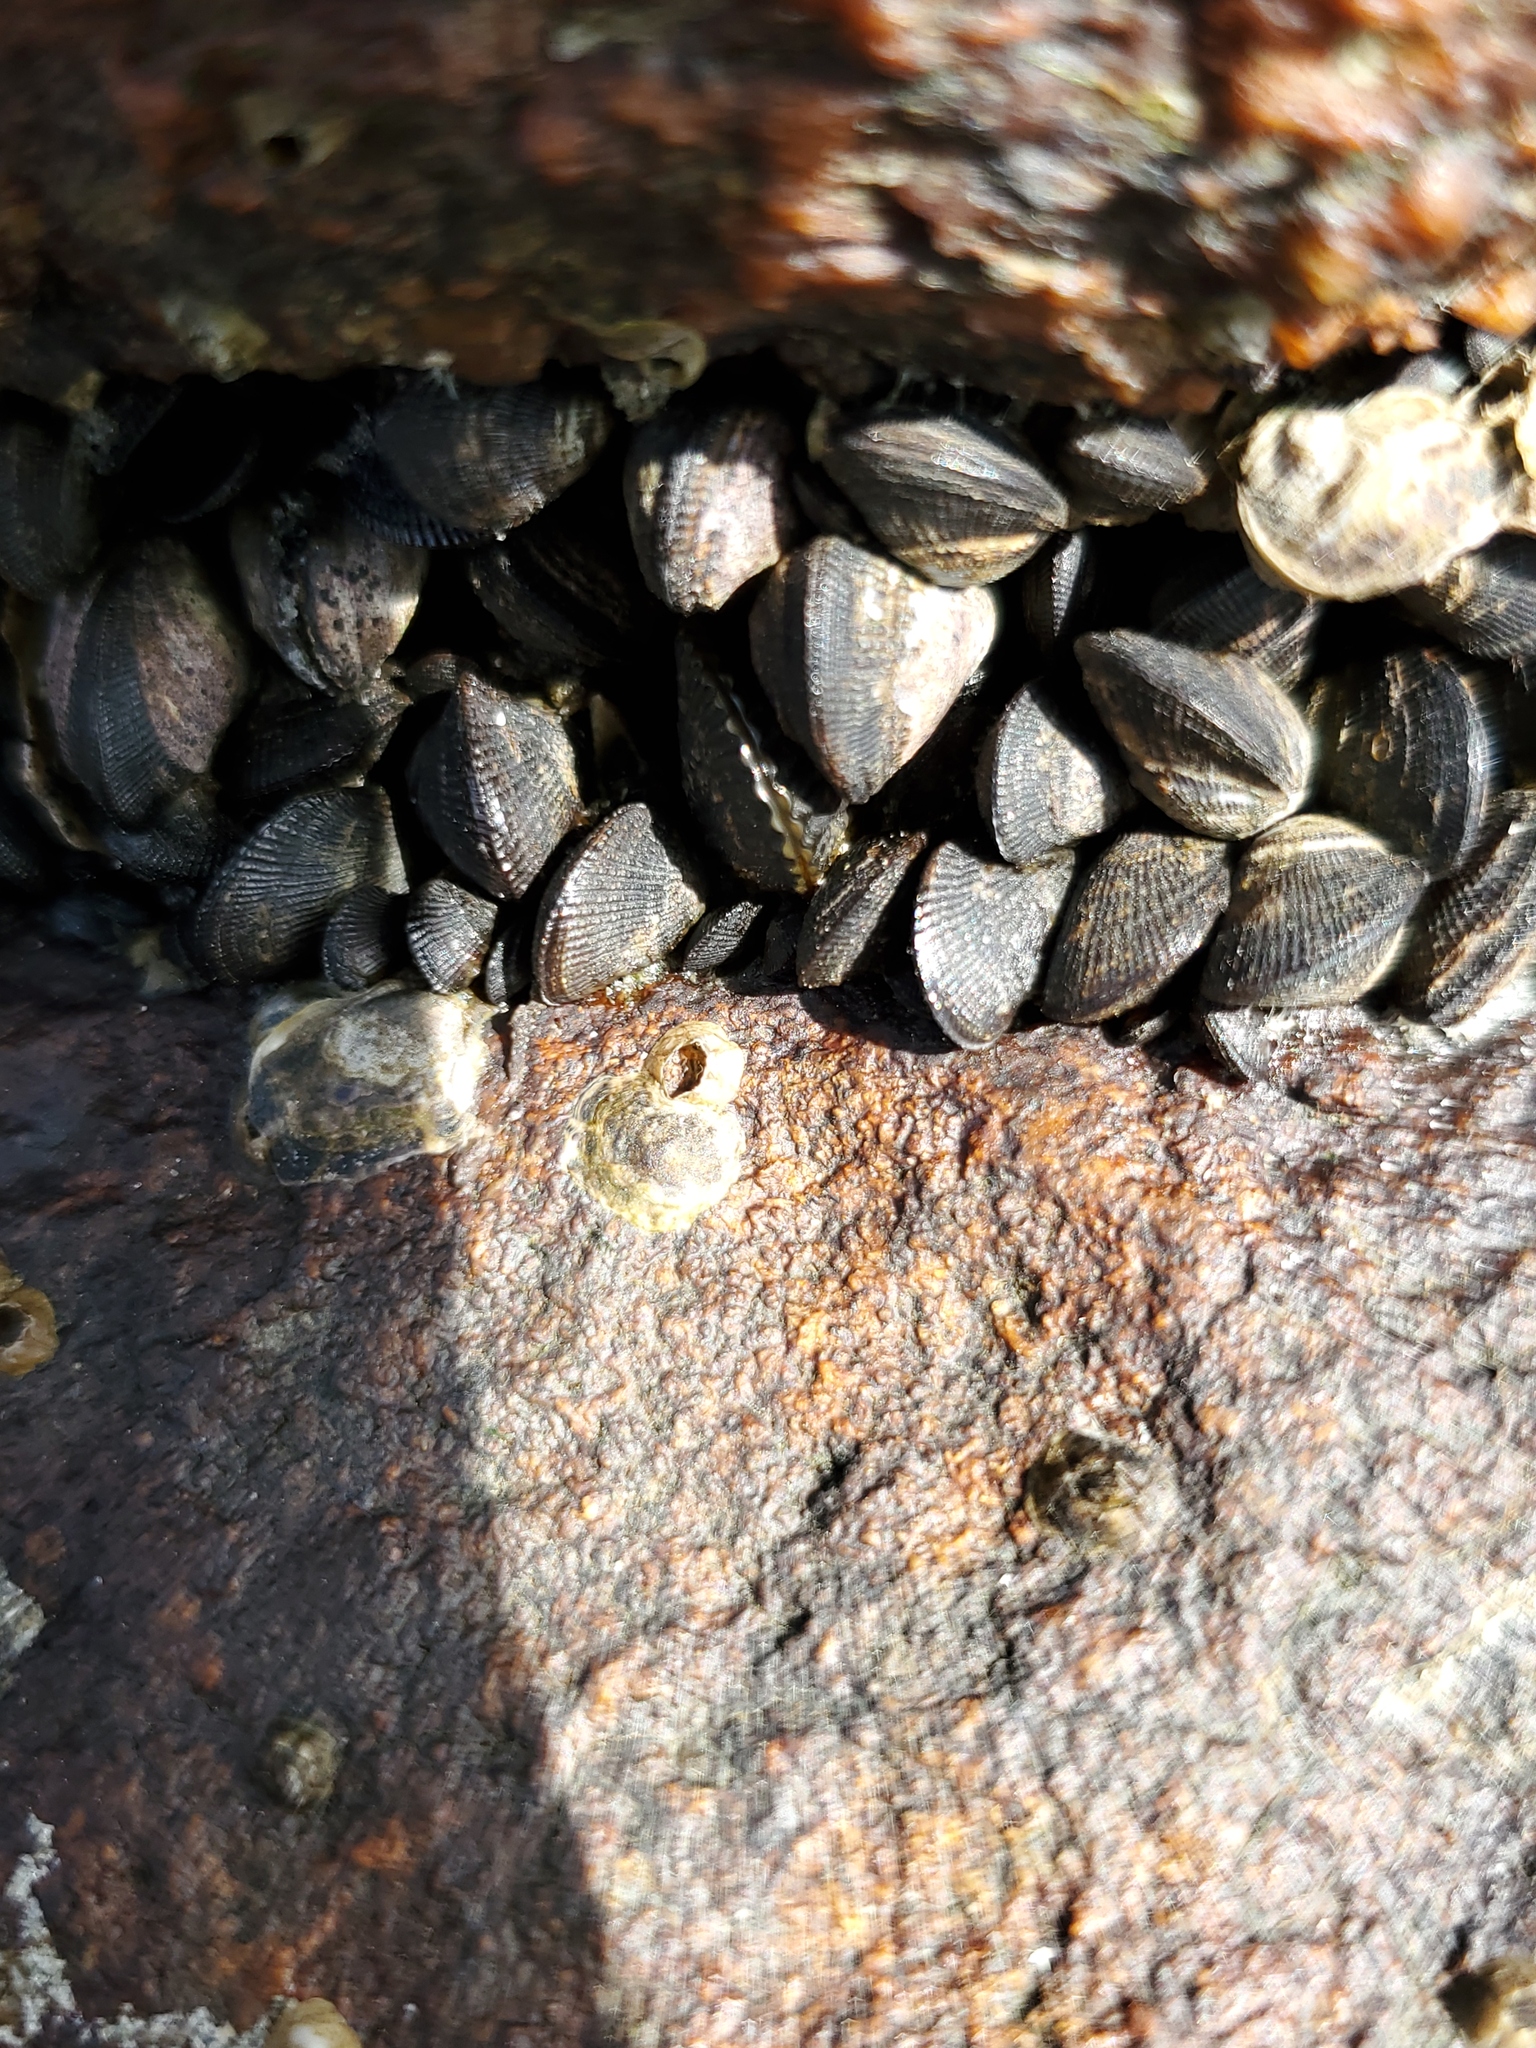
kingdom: Animalia
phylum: Mollusca
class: Bivalvia
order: Mytilida
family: Mytilidae
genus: Geukensia
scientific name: Geukensia demissa
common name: Ribbed mussel
